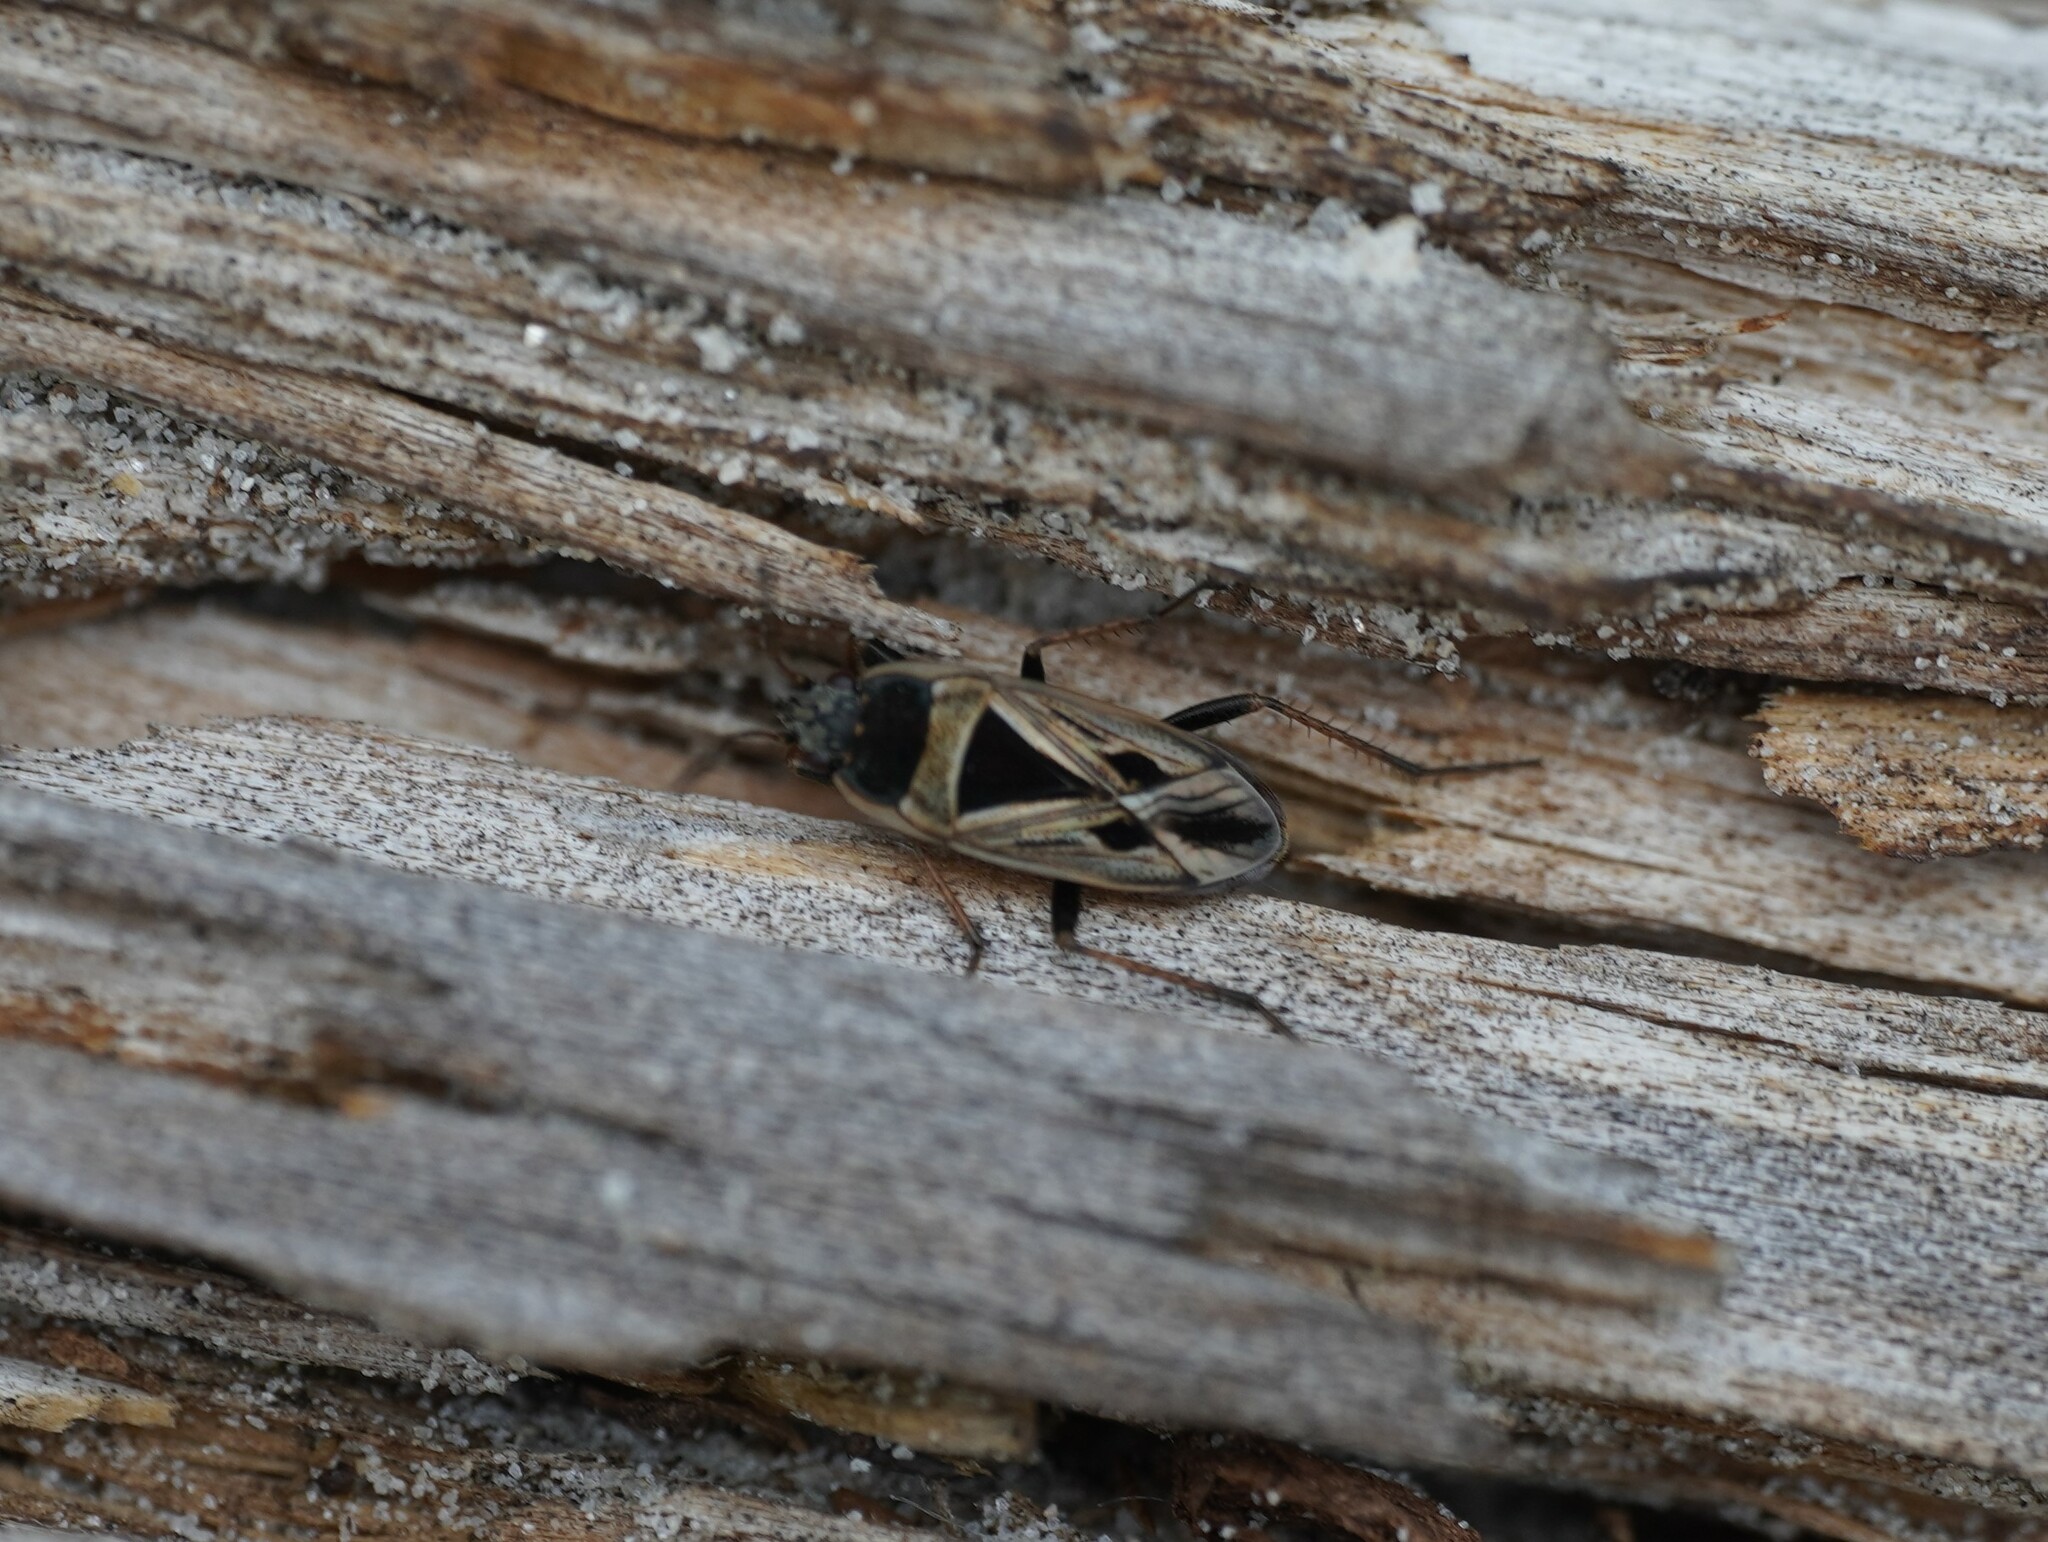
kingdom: Animalia
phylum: Arthropoda
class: Insecta
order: Hemiptera
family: Rhyparochromidae
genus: Xanthochilus
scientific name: Xanthochilus quadratus
